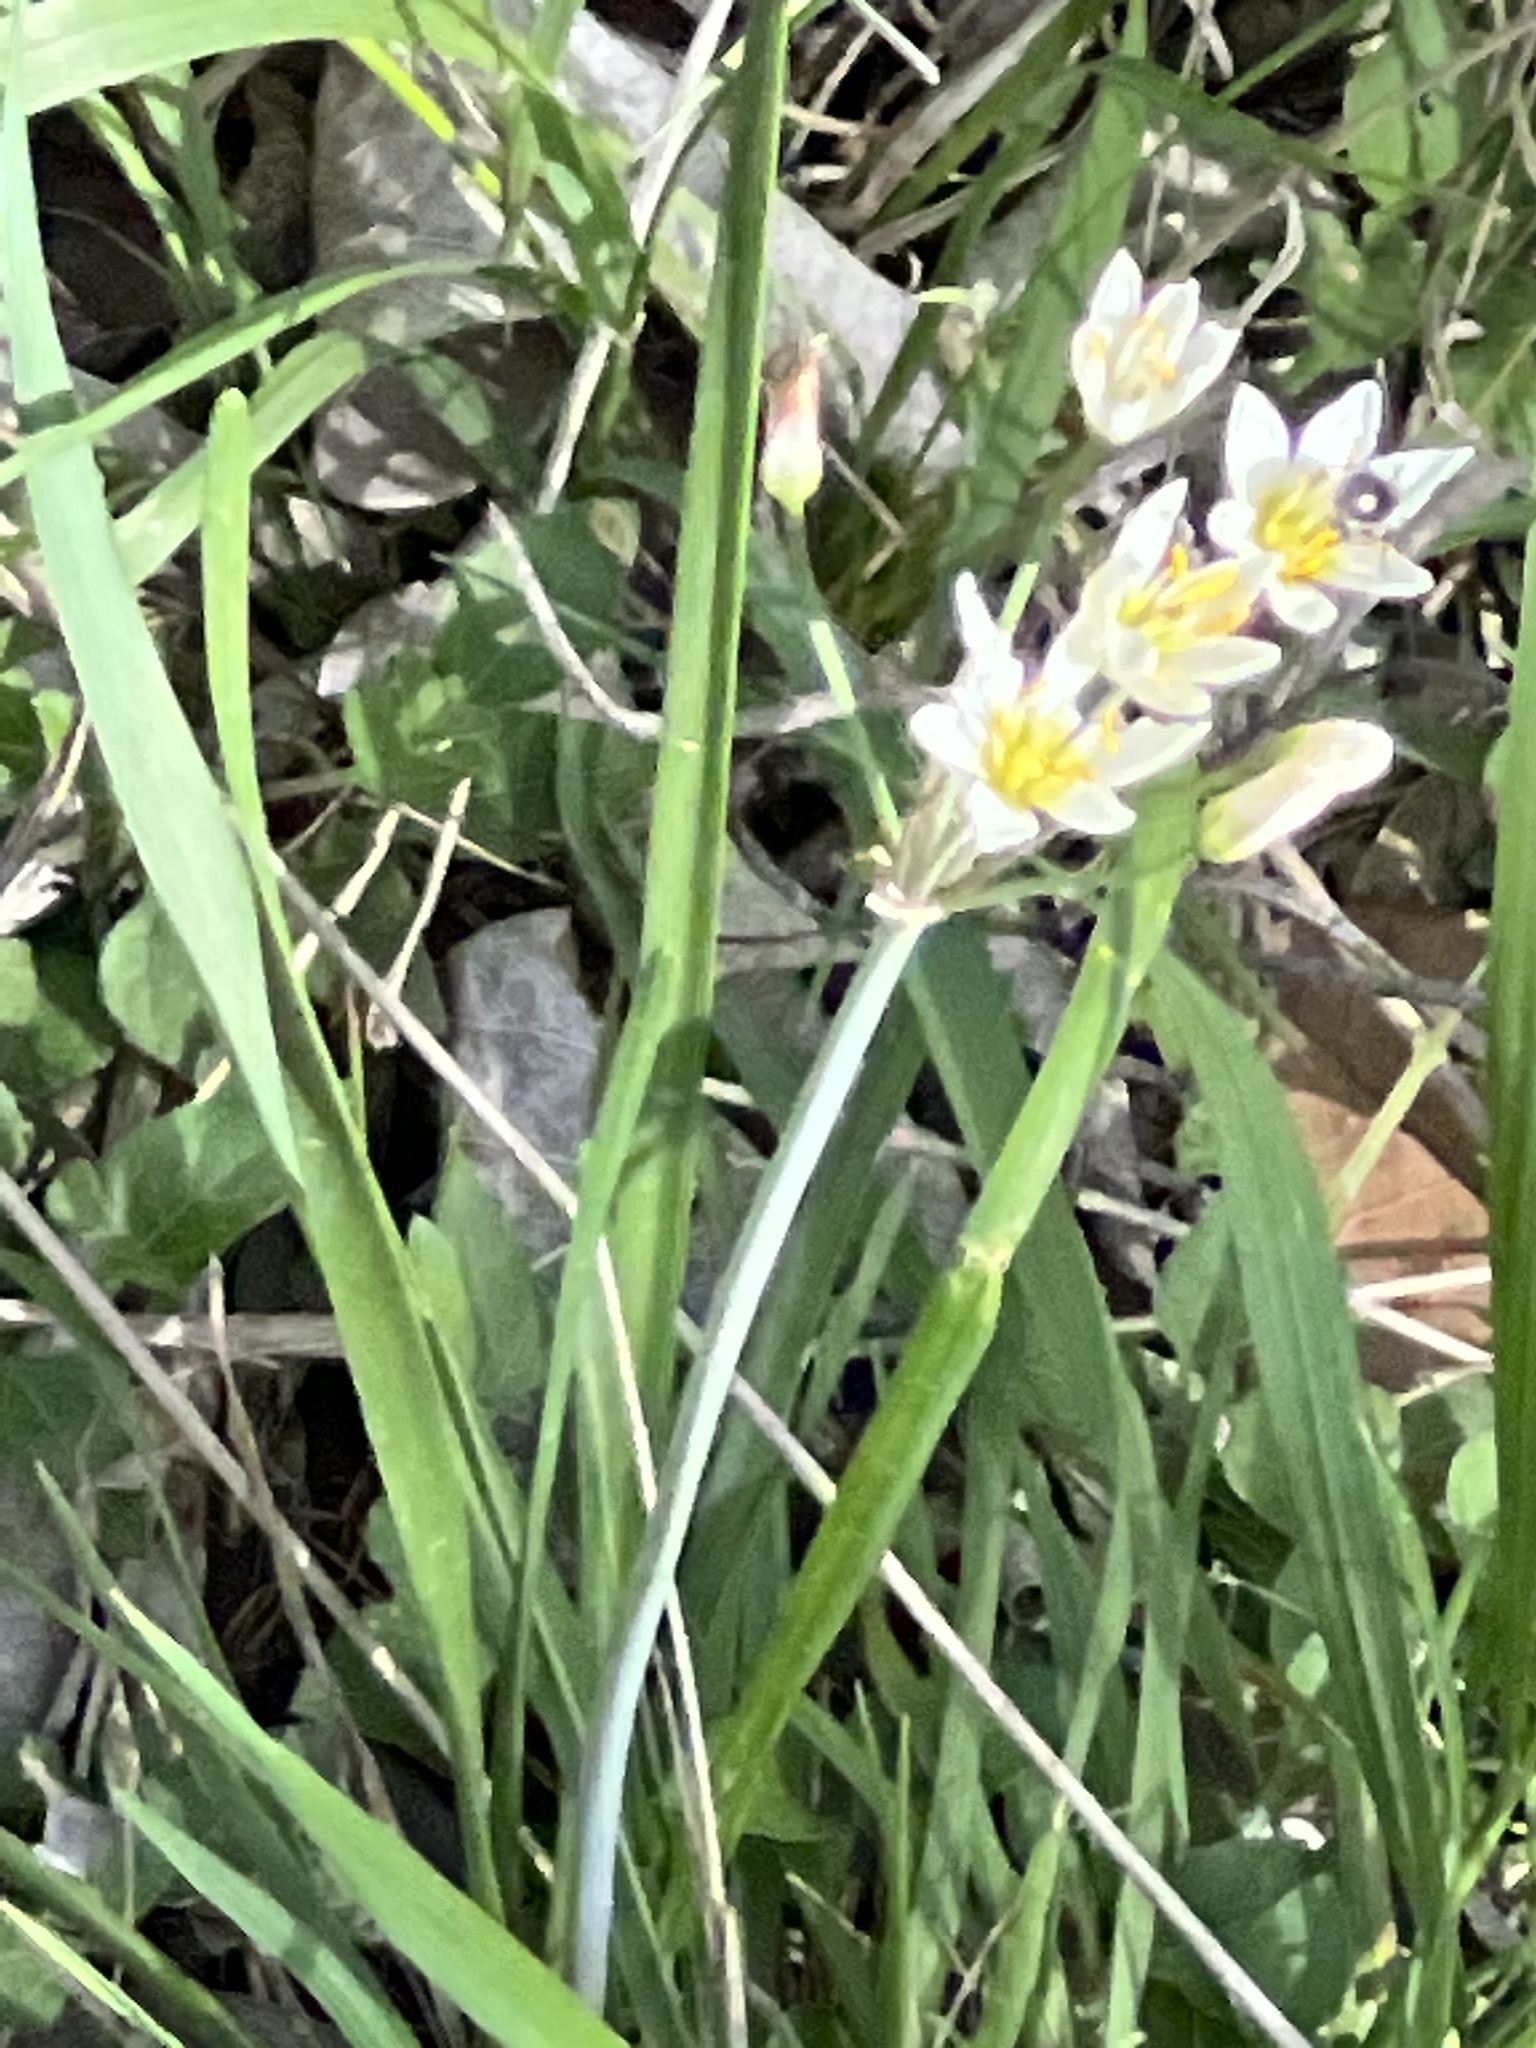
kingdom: Plantae
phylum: Tracheophyta
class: Liliopsida
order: Asparagales
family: Amaryllidaceae
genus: Nothoscordum
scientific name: Nothoscordum bivalve
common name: Crow-poison
